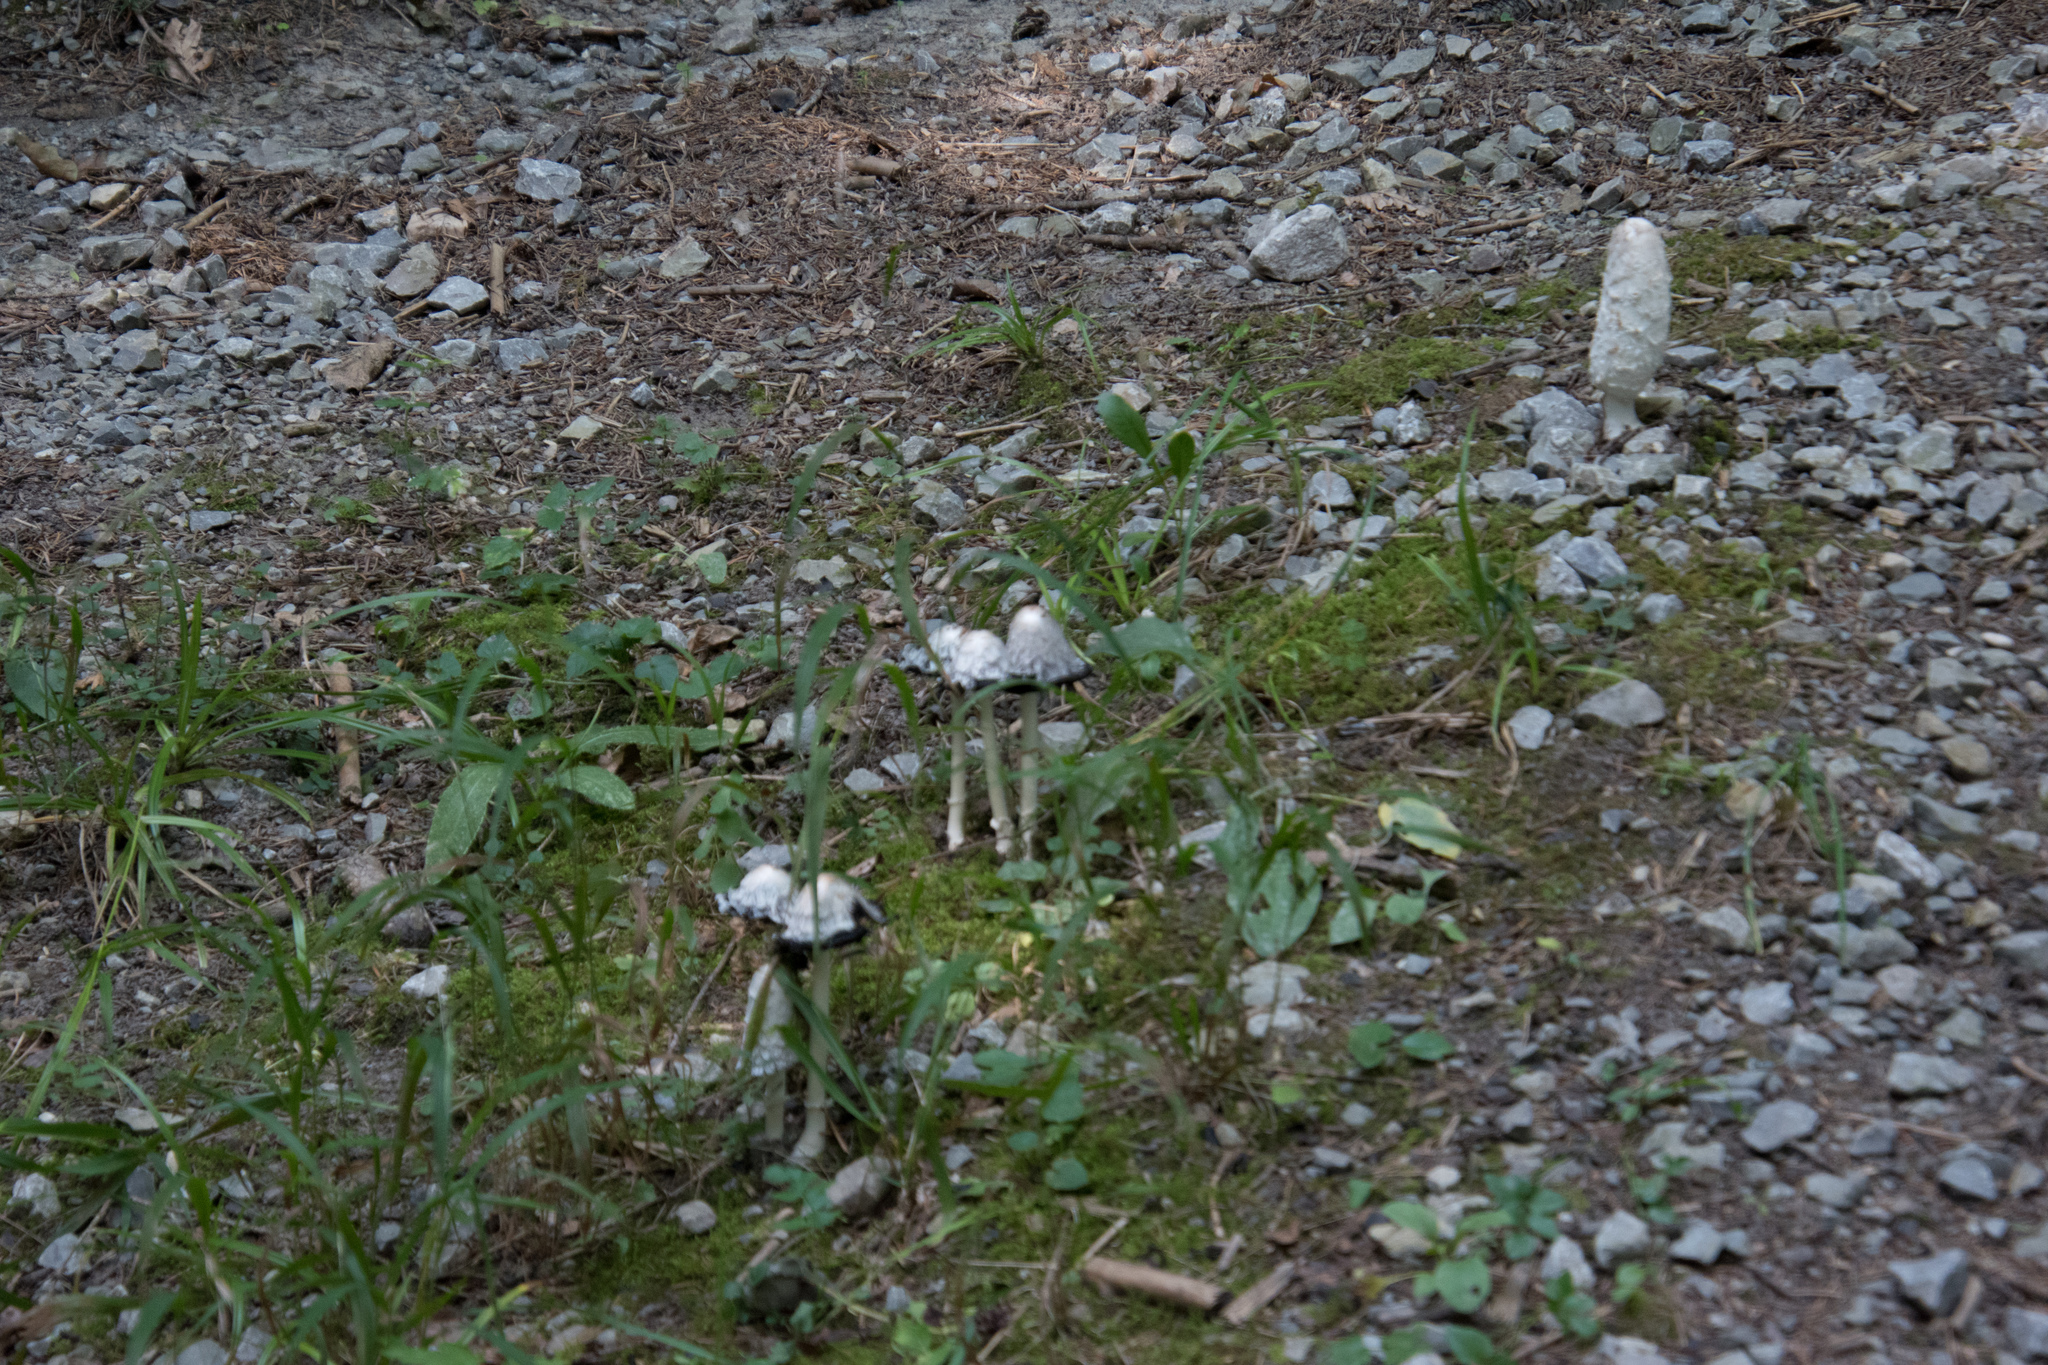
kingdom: Fungi
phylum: Basidiomycota
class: Agaricomycetes
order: Agaricales
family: Agaricaceae
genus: Coprinus
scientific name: Coprinus comatus
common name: Lawyer's wig
